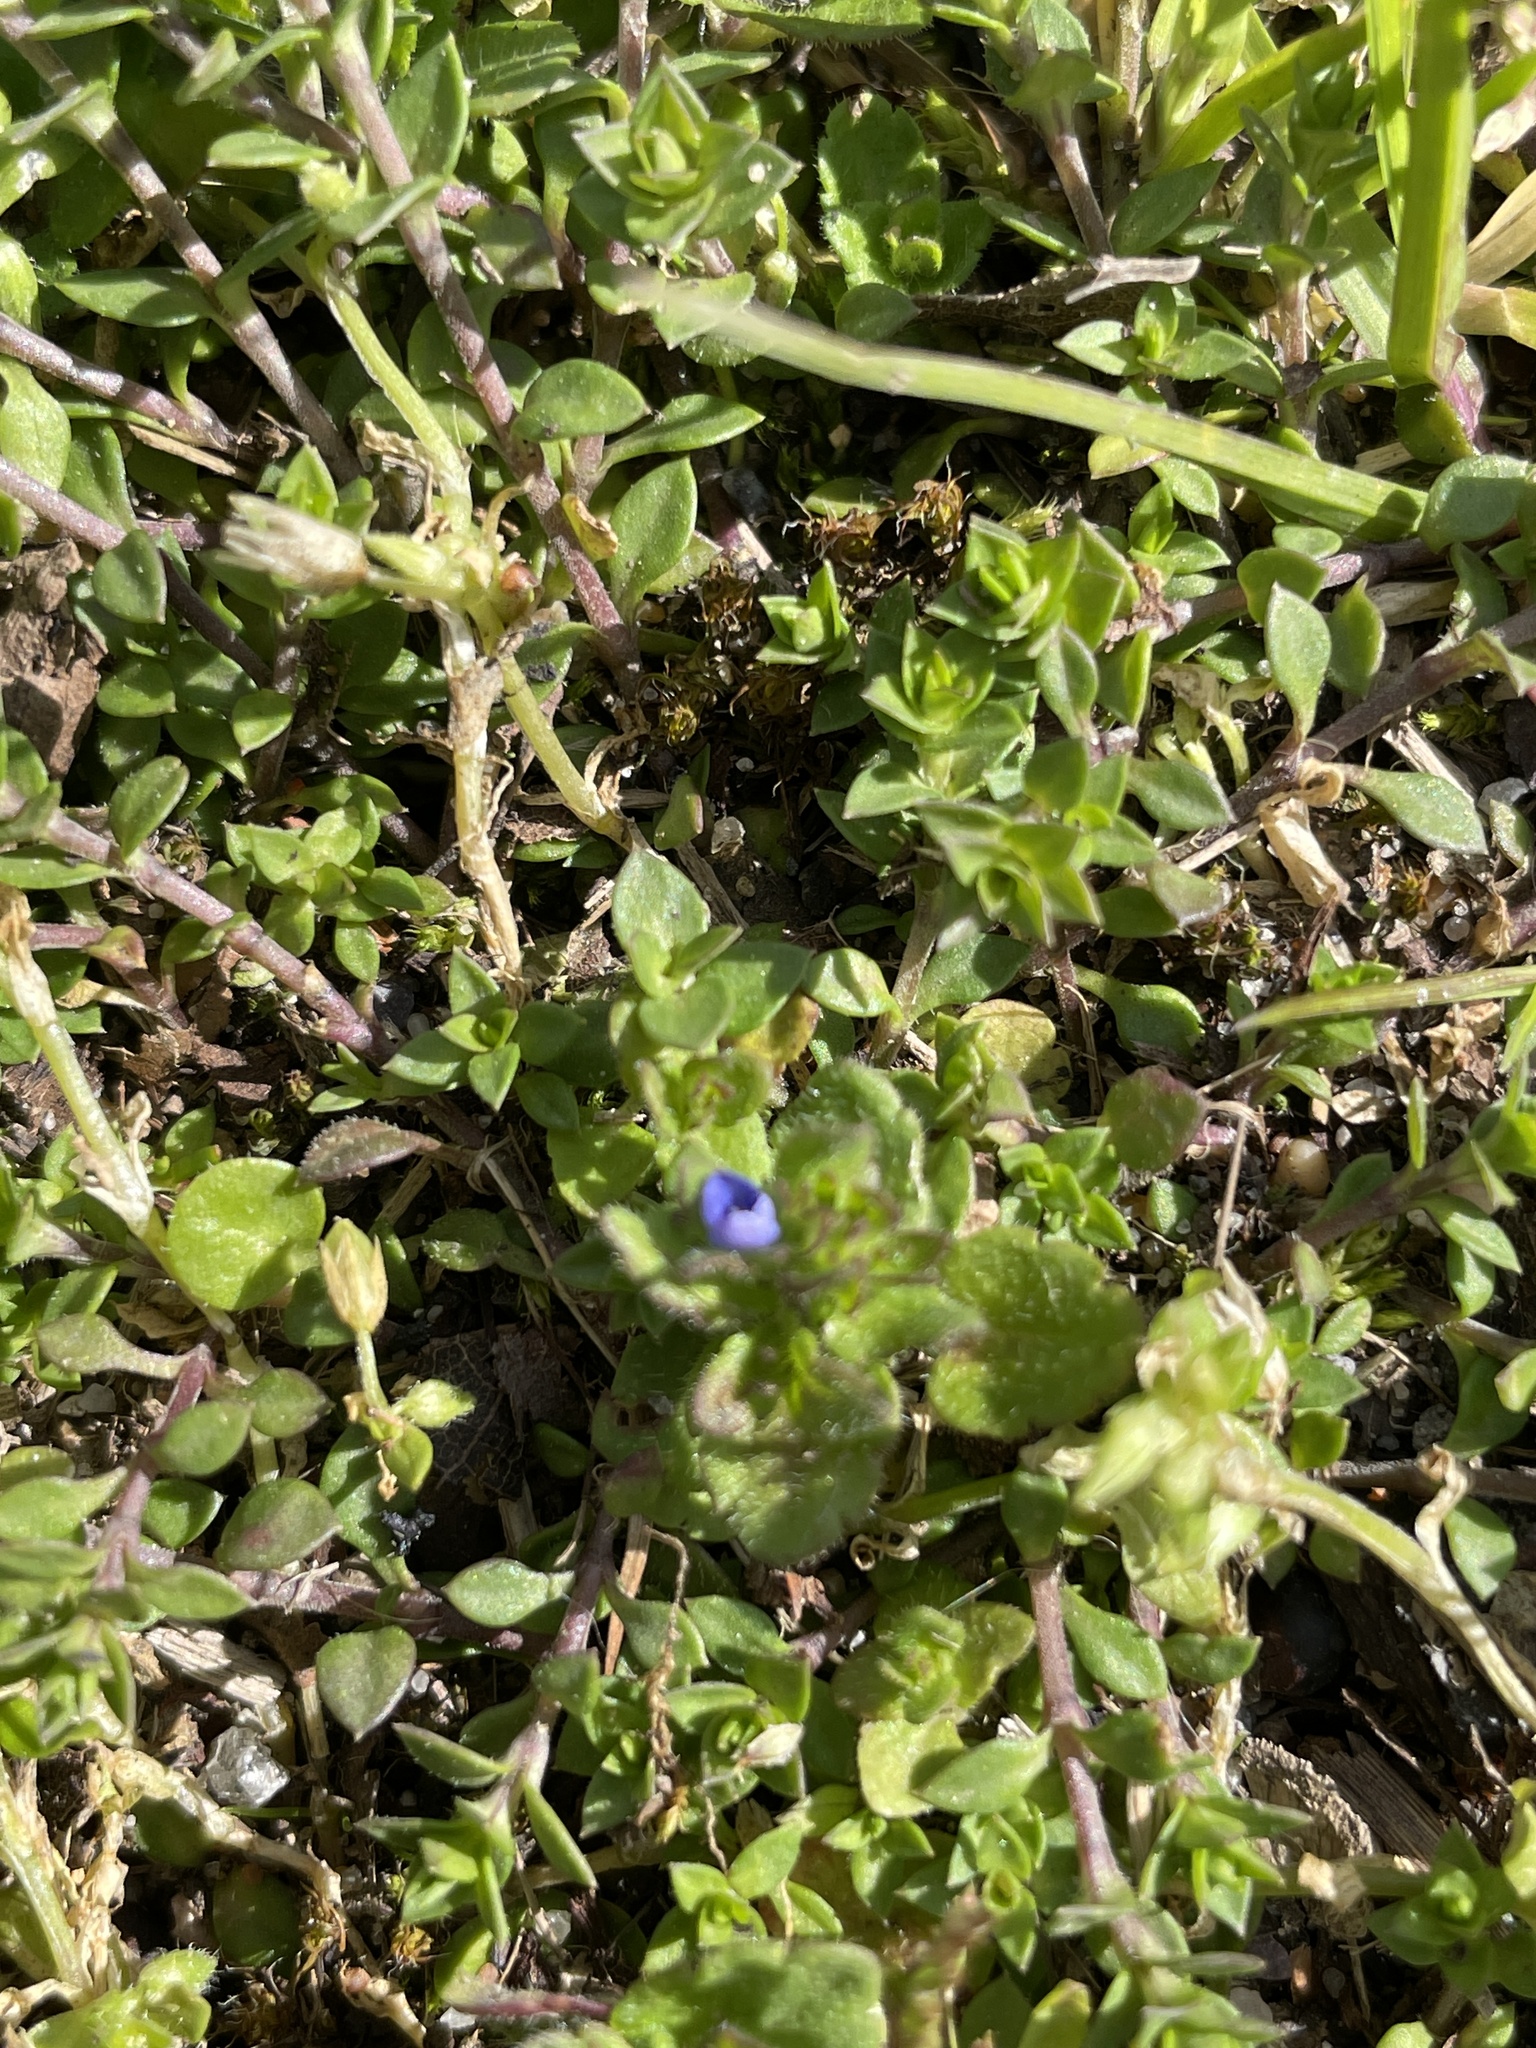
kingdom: Plantae
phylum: Tracheophyta
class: Magnoliopsida
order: Lamiales
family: Plantaginaceae
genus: Veronica
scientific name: Veronica arvensis
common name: Corn speedwell
